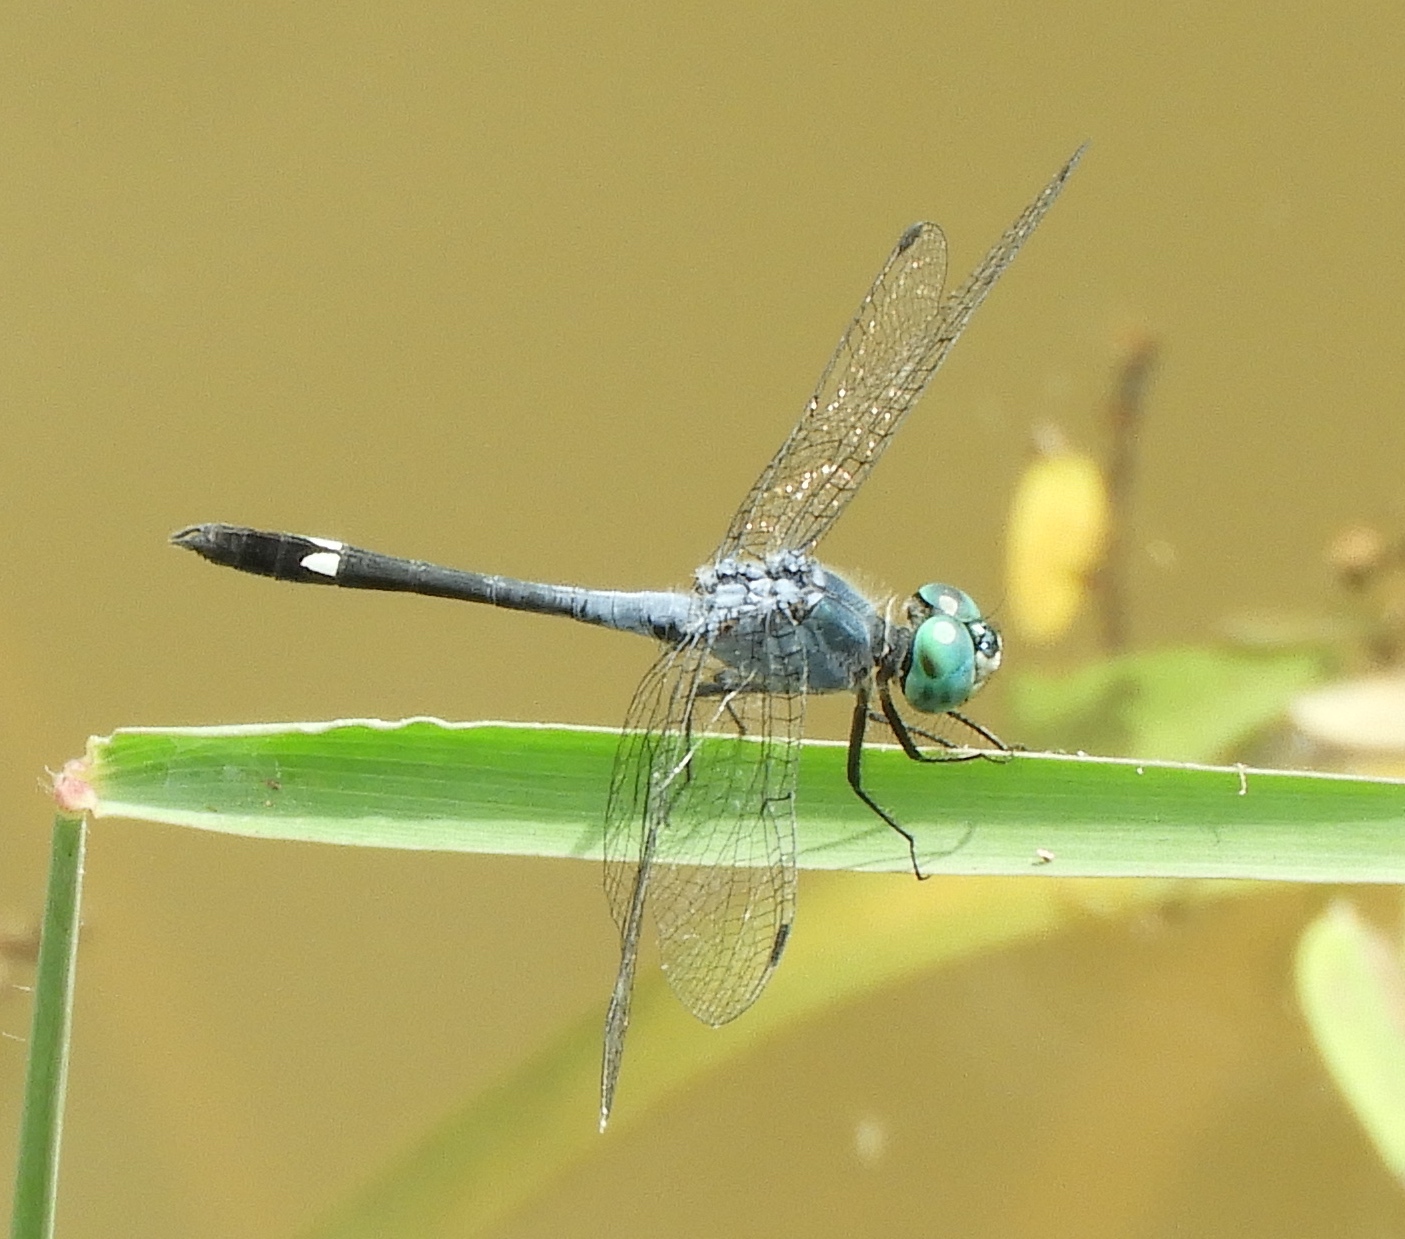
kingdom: Animalia
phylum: Arthropoda
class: Insecta
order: Odonata
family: Libellulidae
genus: Micrathyria
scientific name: Micrathyria aequalis
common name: Spot-tailed dasher
